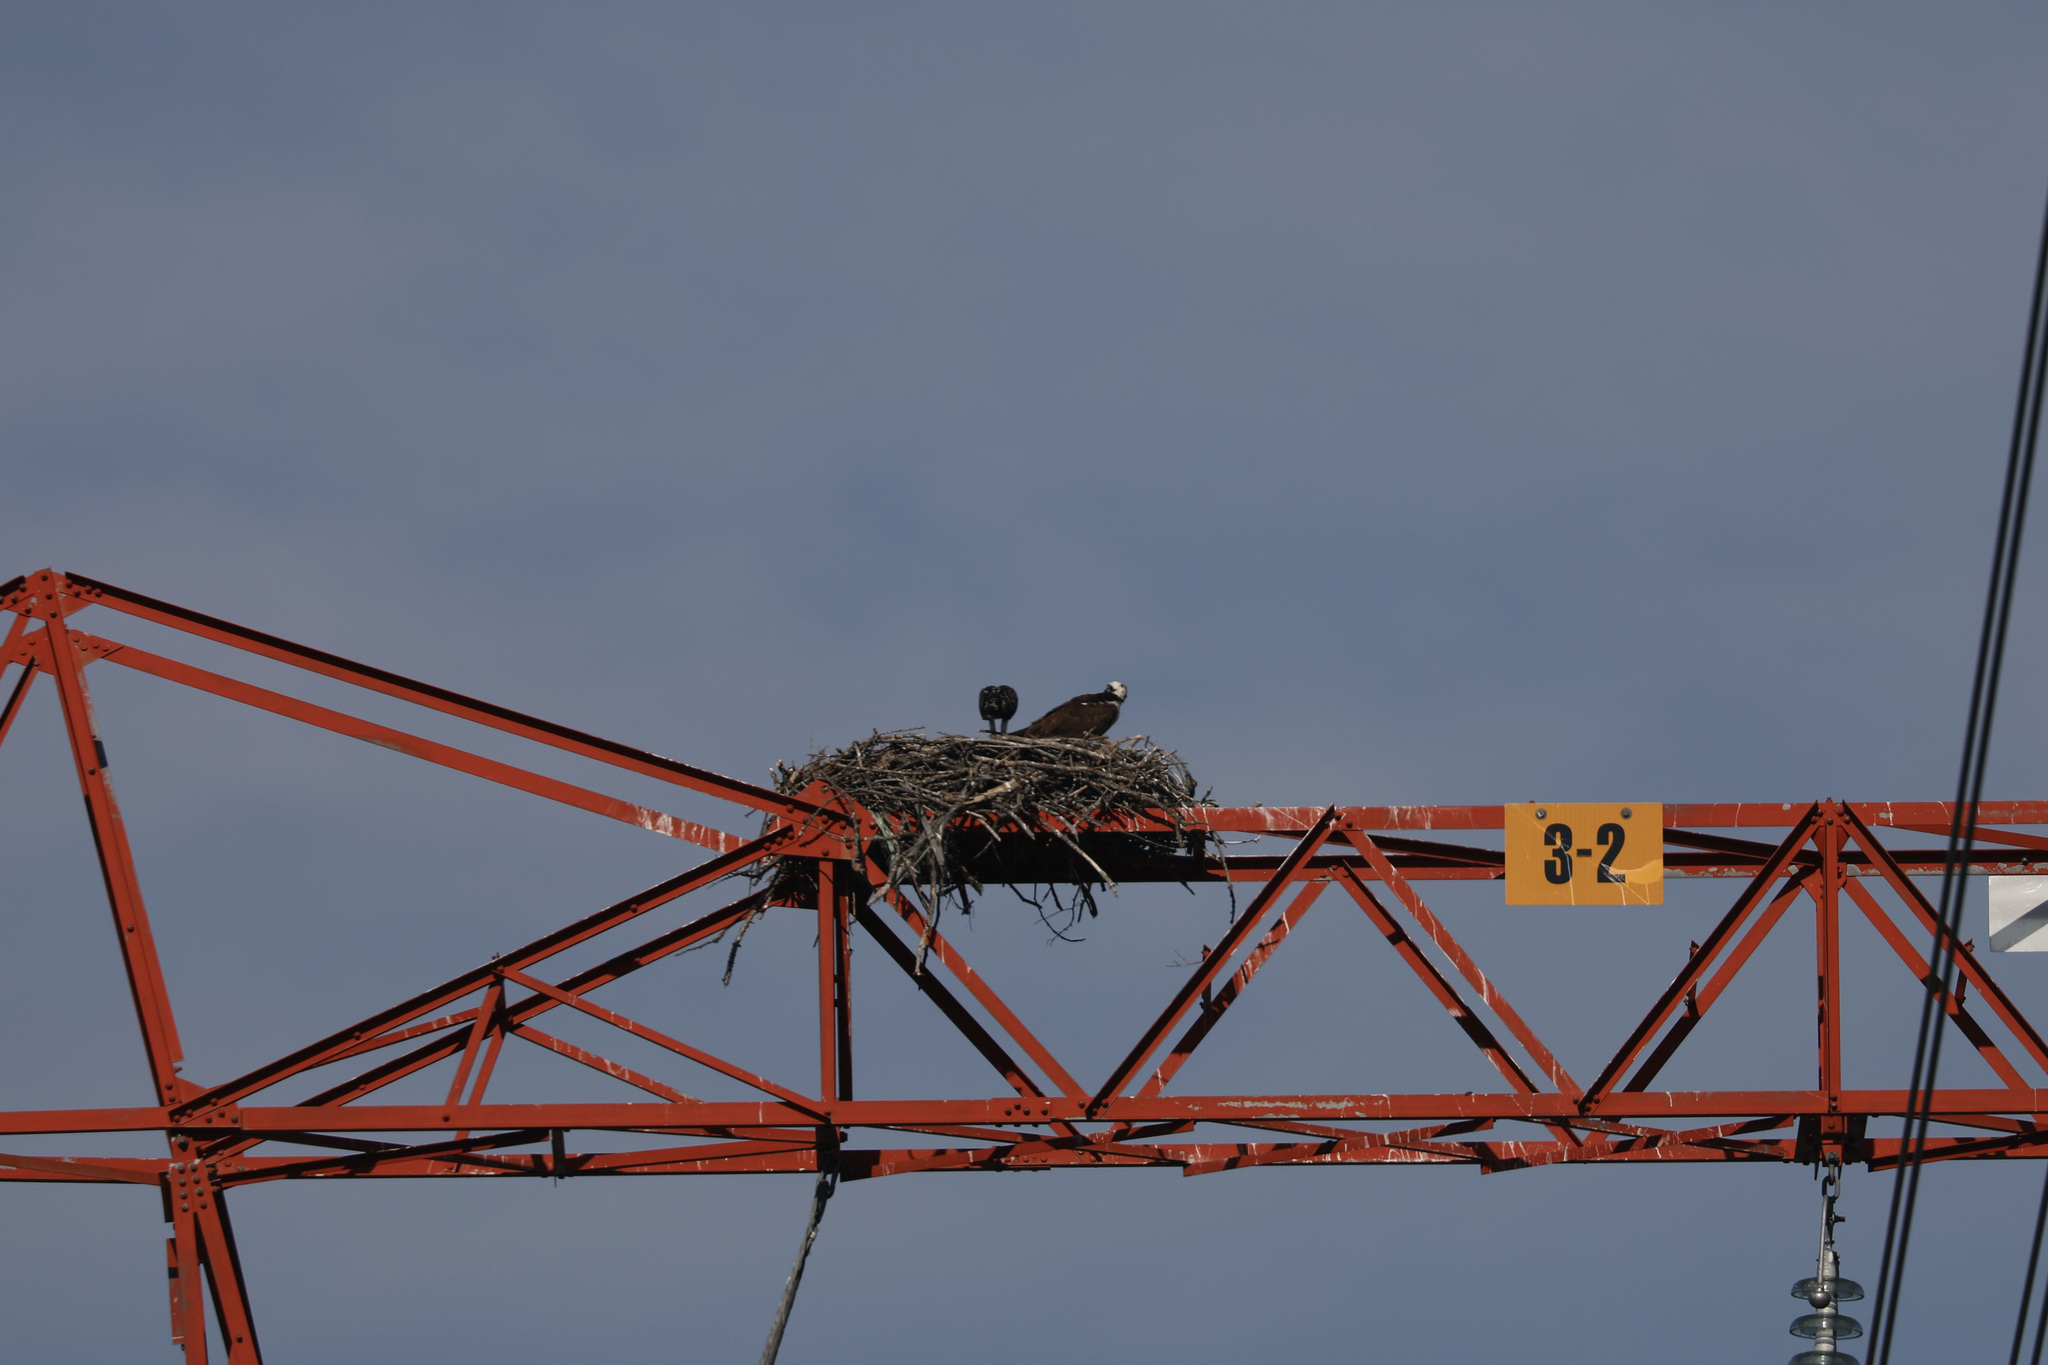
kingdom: Animalia
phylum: Chordata
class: Aves
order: Accipitriformes
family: Pandionidae
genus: Pandion
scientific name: Pandion haliaetus
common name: Osprey
